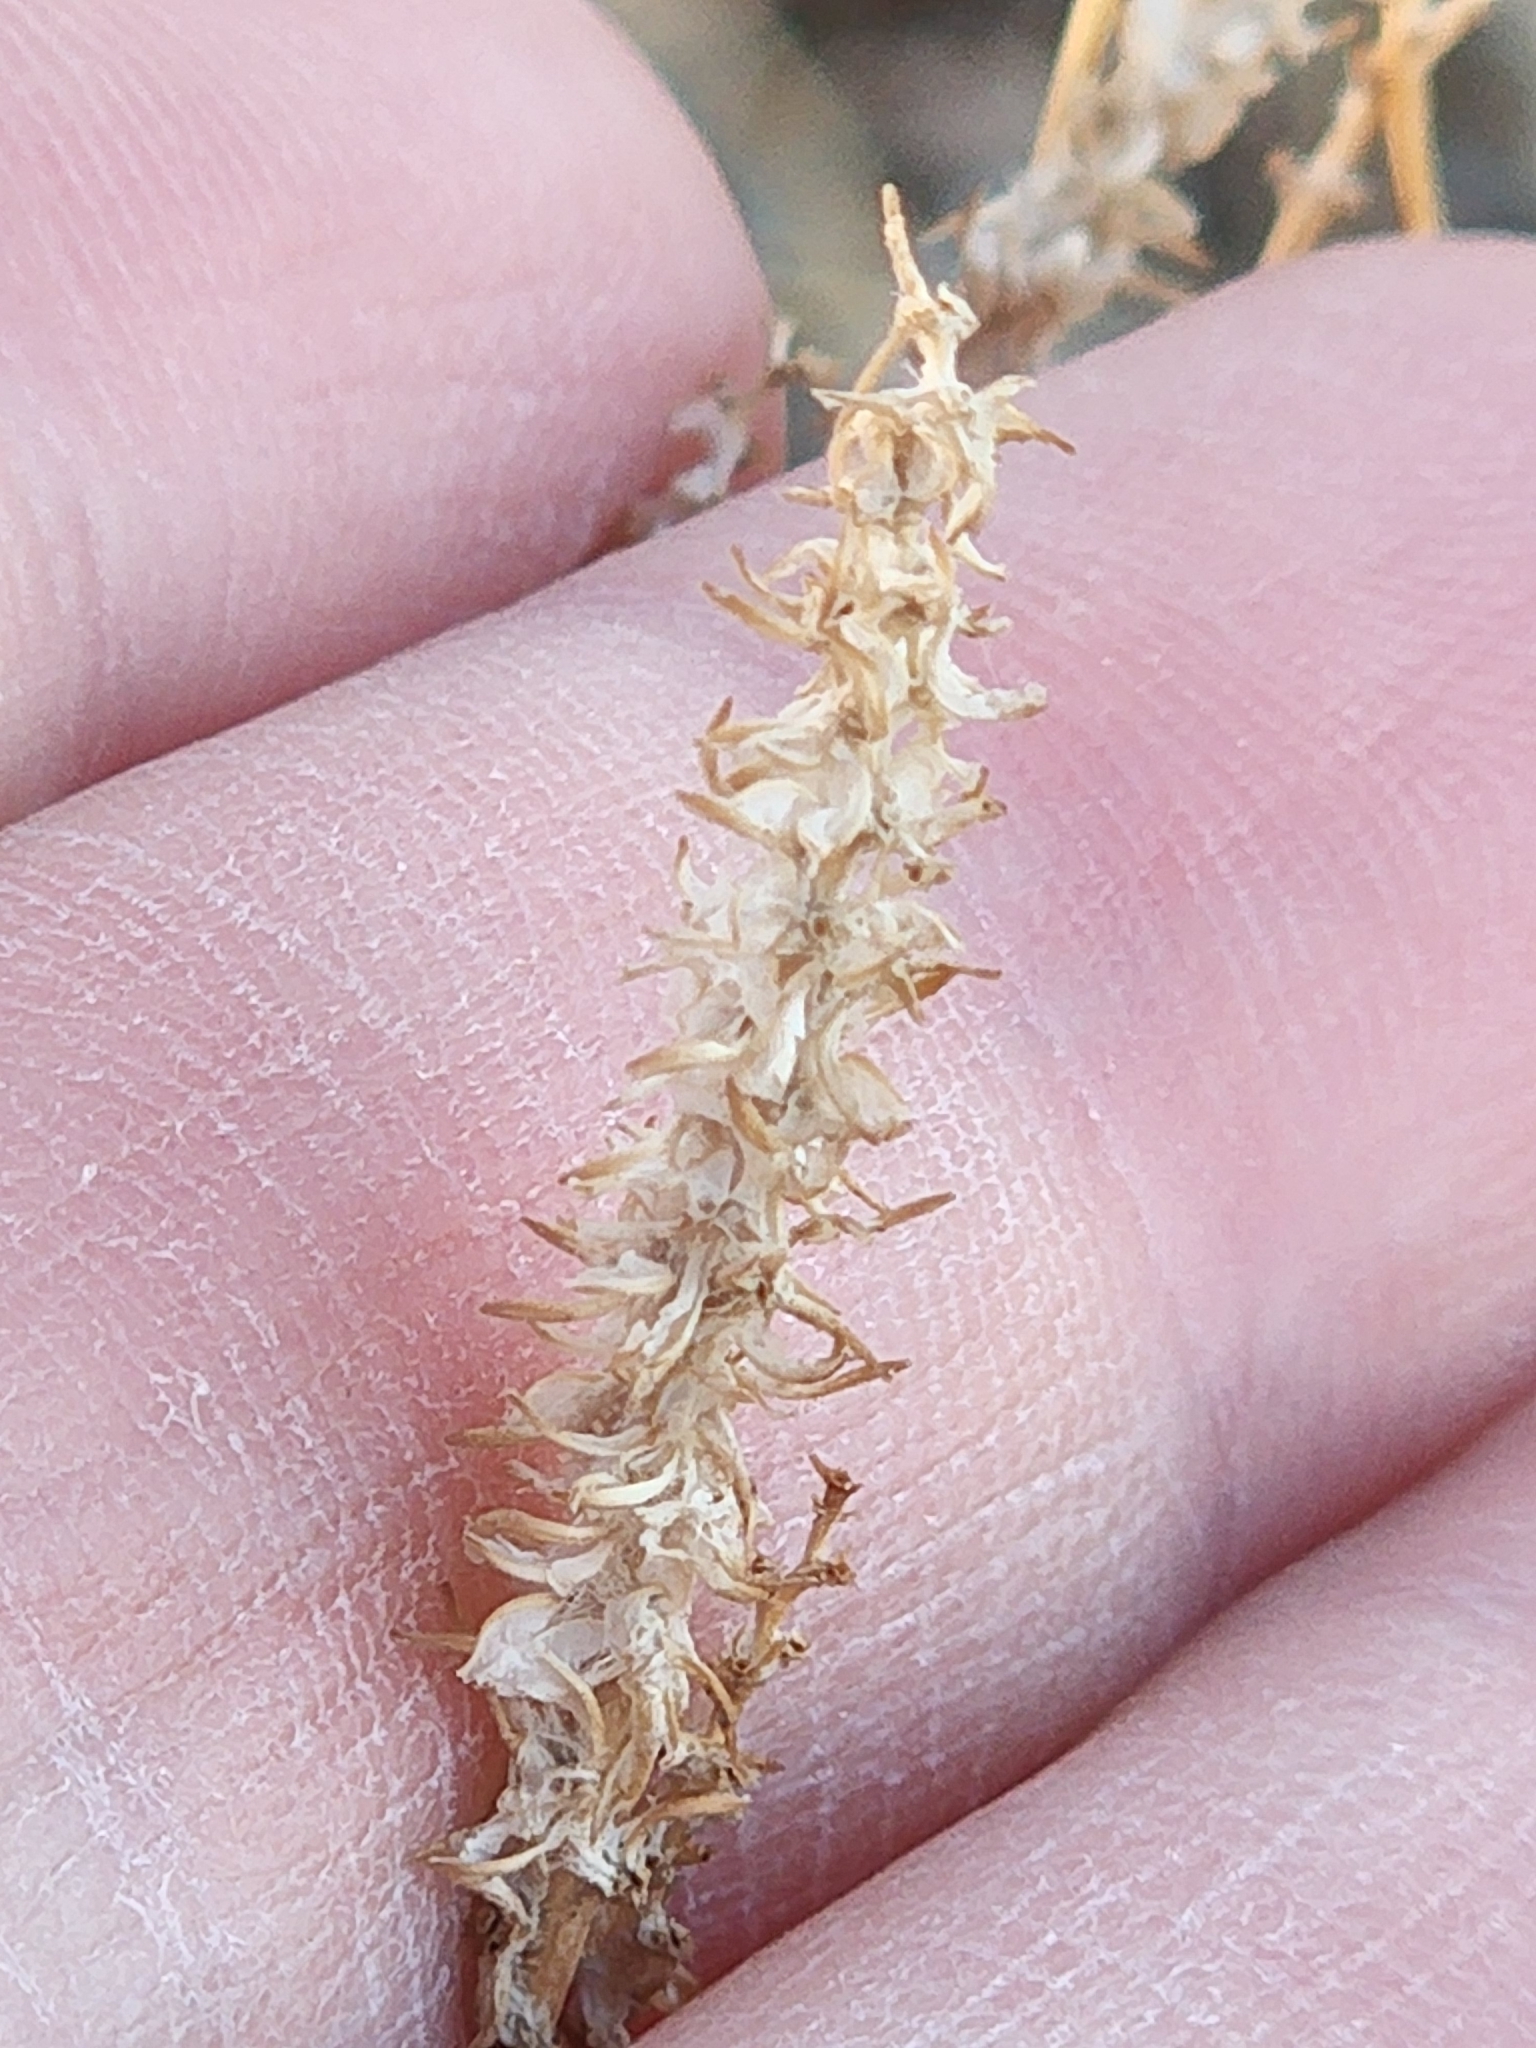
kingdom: Plantae
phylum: Tracheophyta
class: Magnoliopsida
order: Lamiales
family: Plantaginaceae
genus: Plantago
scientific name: Plantago ovata
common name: Blond plantain
